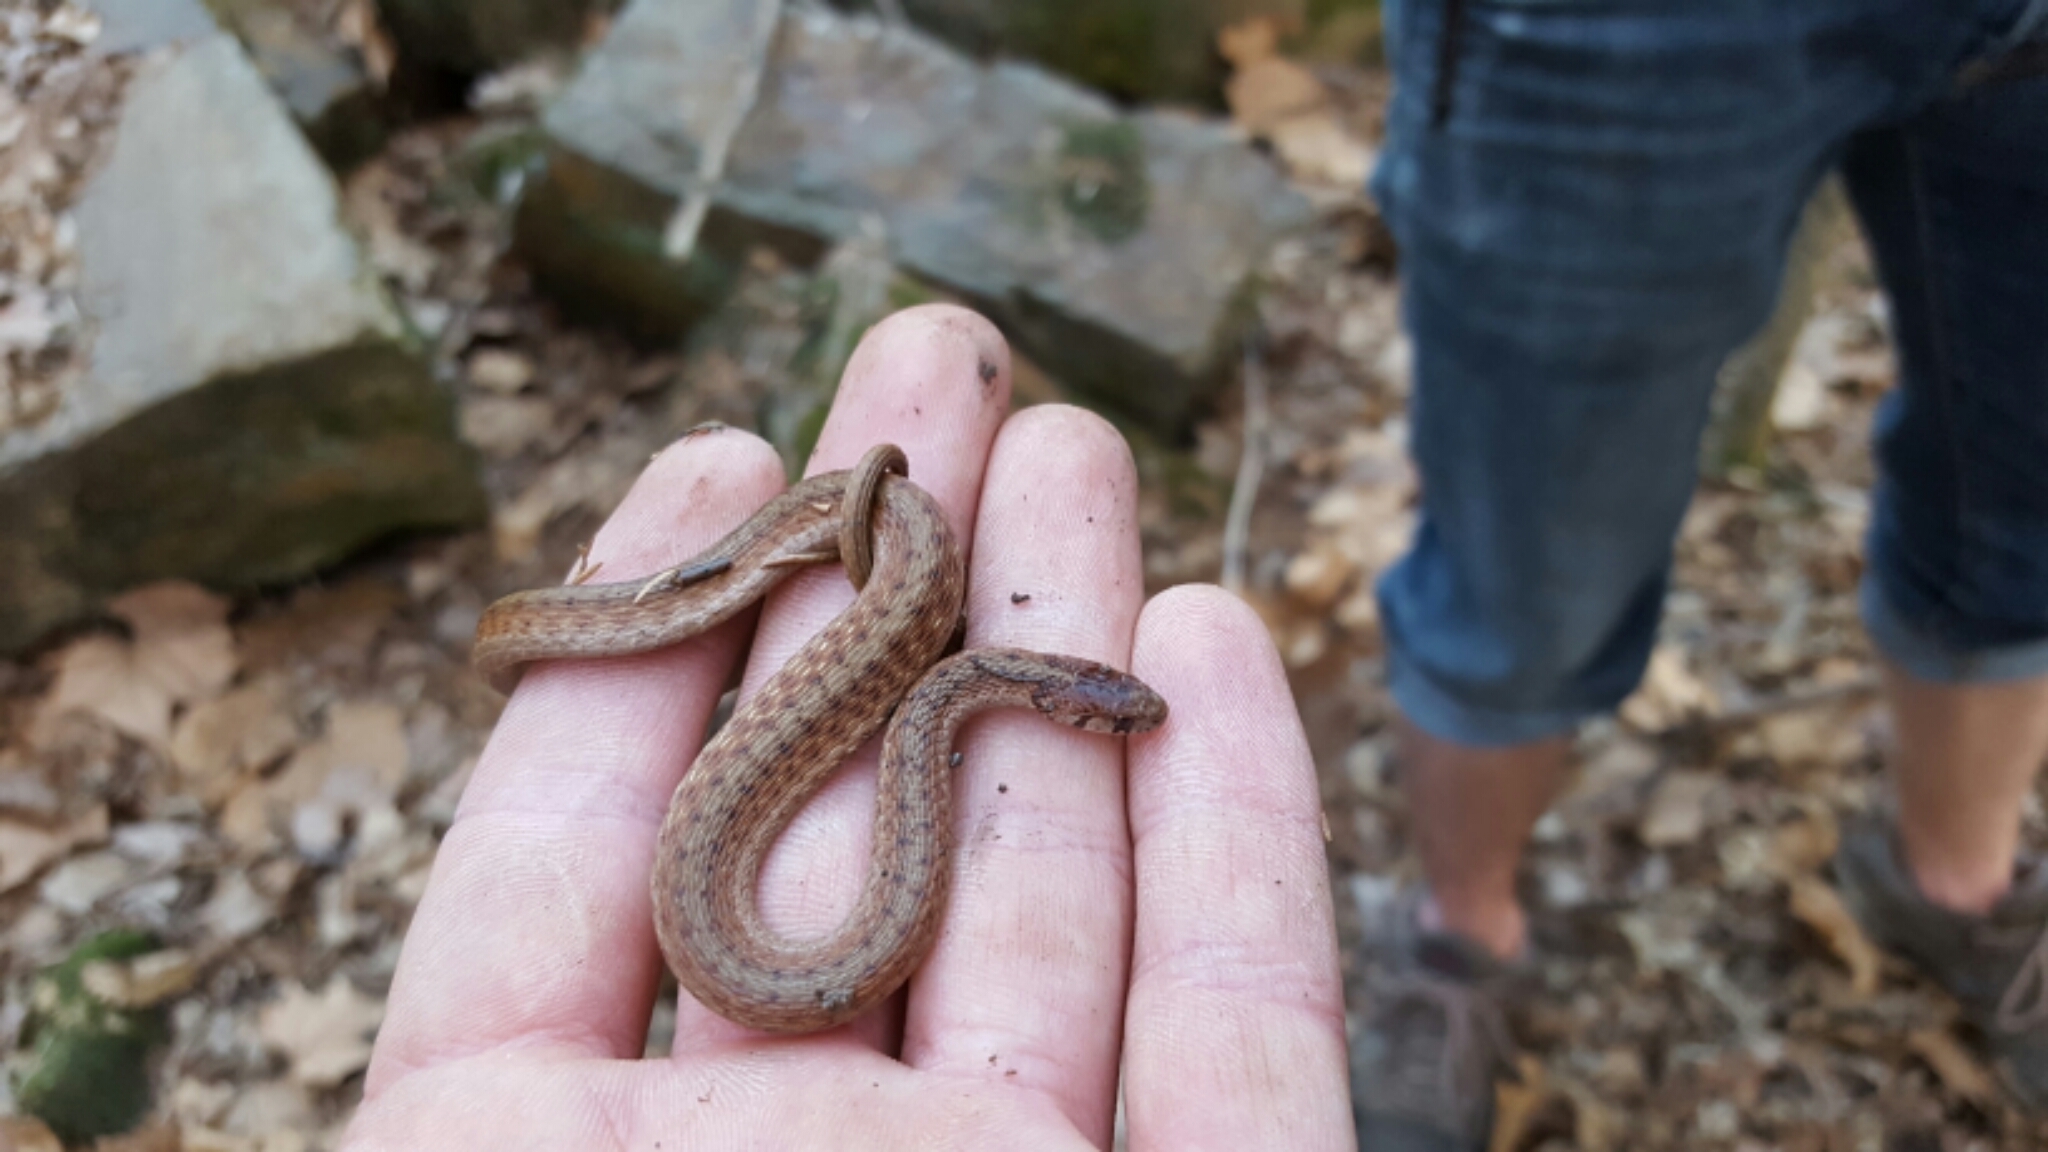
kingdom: Animalia
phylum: Chordata
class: Squamata
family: Colubridae
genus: Storeria
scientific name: Storeria dekayi
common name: (dekay’s) brown snake
